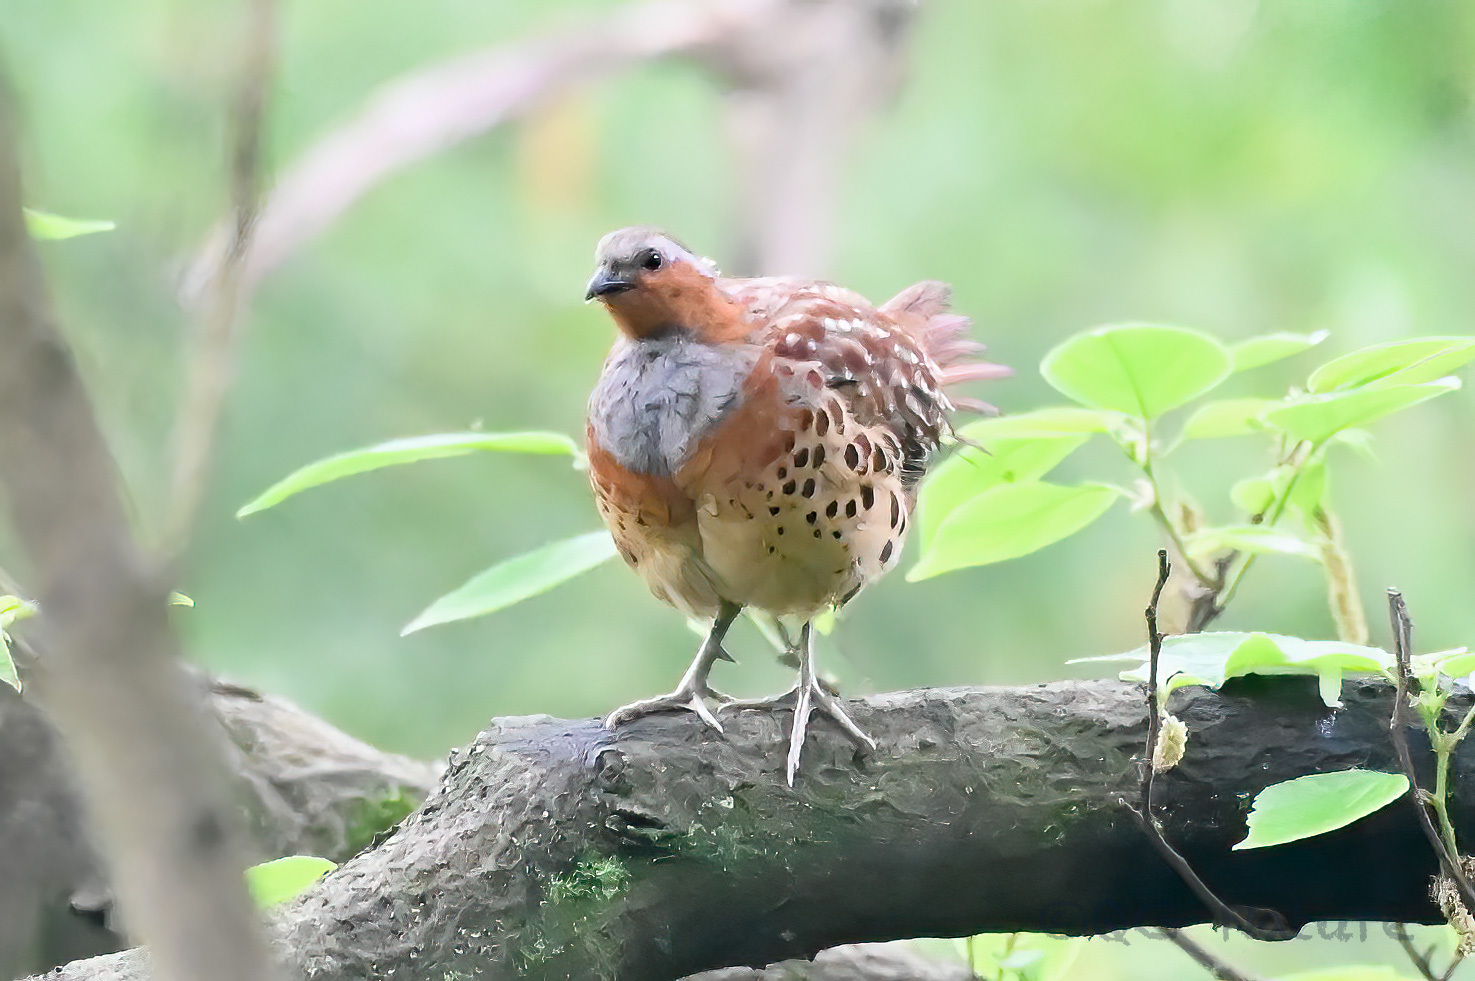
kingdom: Animalia
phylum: Chordata
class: Aves
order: Galliformes
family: Phasianidae
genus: Bambusicola
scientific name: Bambusicola thoracicus
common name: Chinese bamboo partridge
